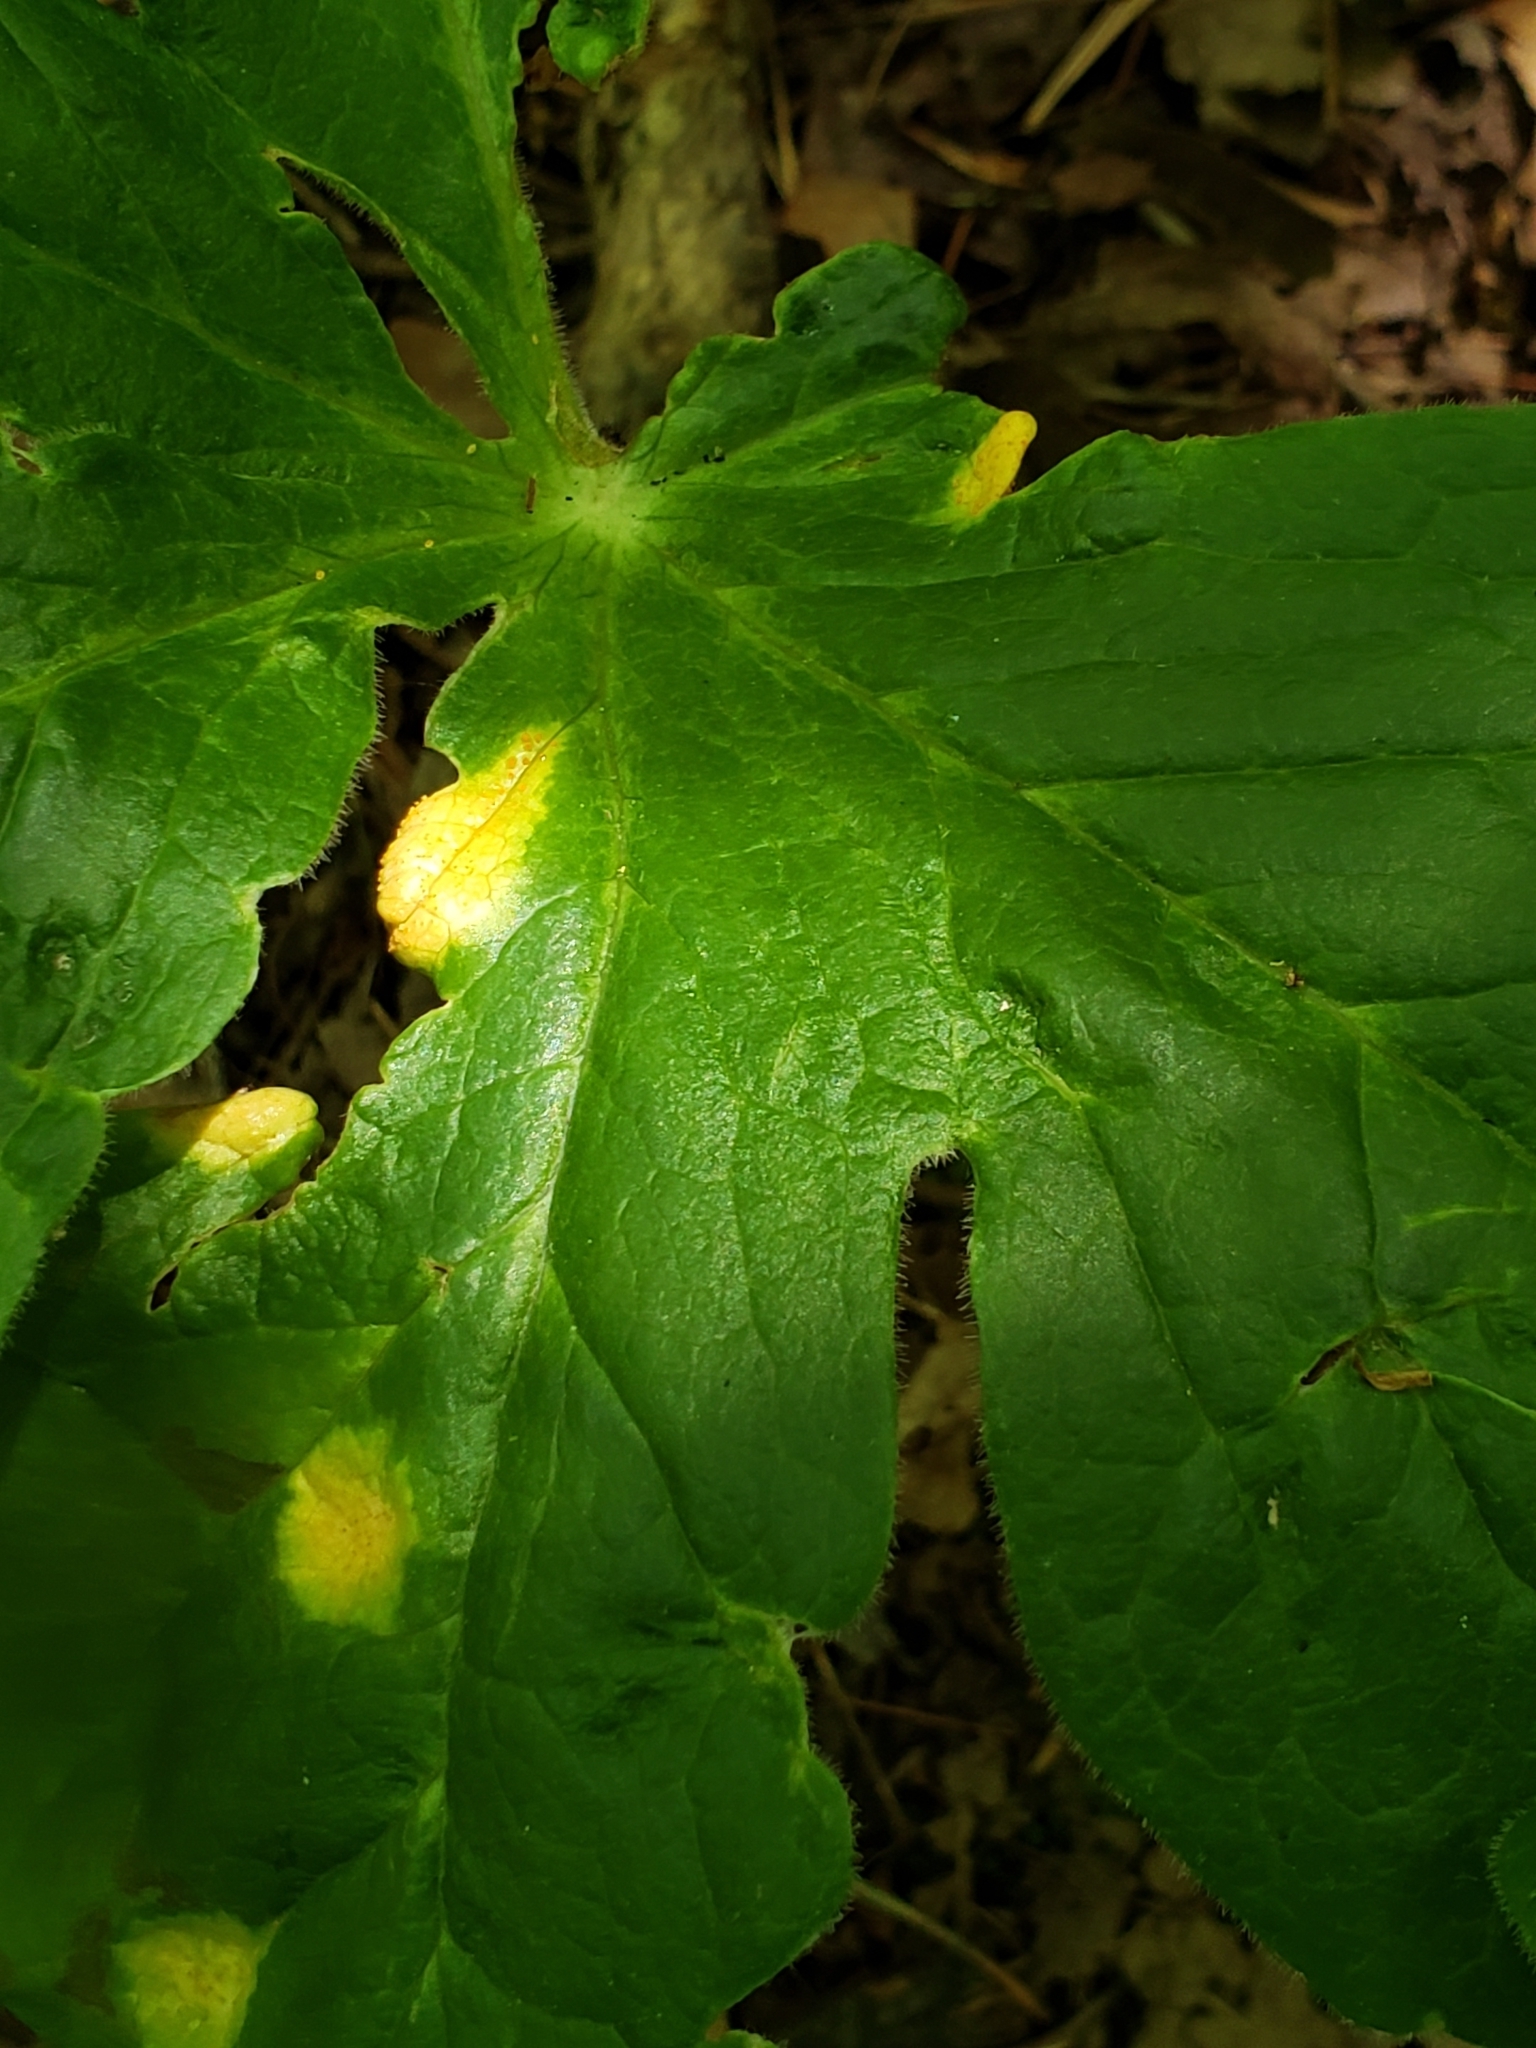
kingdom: Fungi
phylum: Basidiomycota
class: Pucciniomycetes
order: Pucciniales
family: Pucciniaceae
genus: Puccinia
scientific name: Puccinia podophylli
